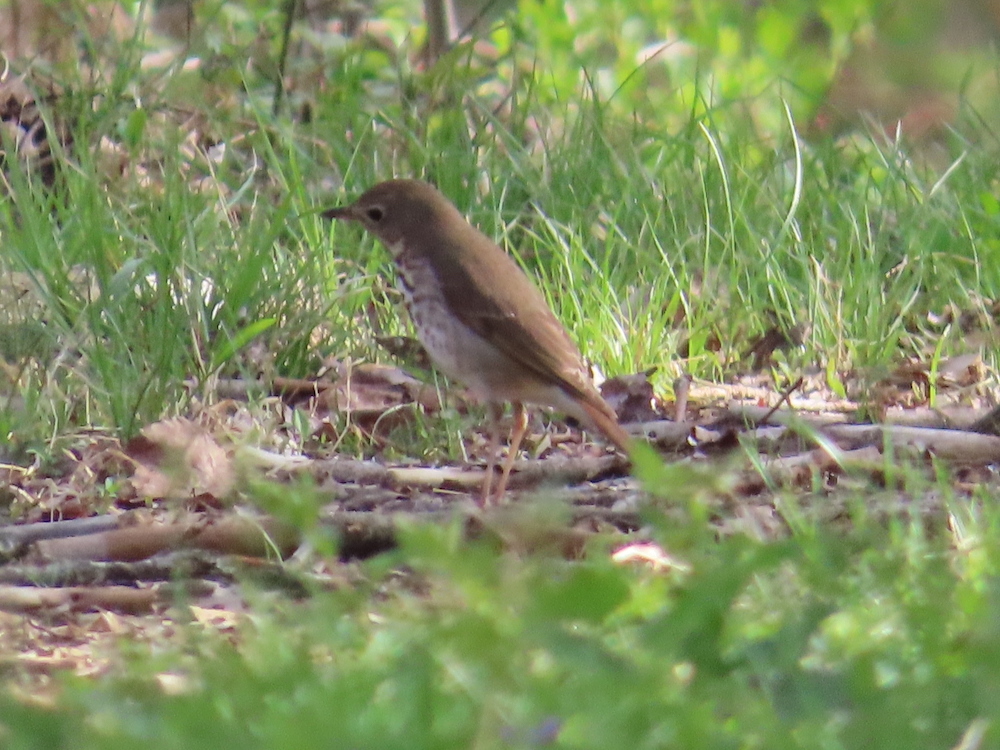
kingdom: Animalia
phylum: Chordata
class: Aves
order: Passeriformes
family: Turdidae
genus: Catharus
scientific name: Catharus guttatus
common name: Hermit thrush
